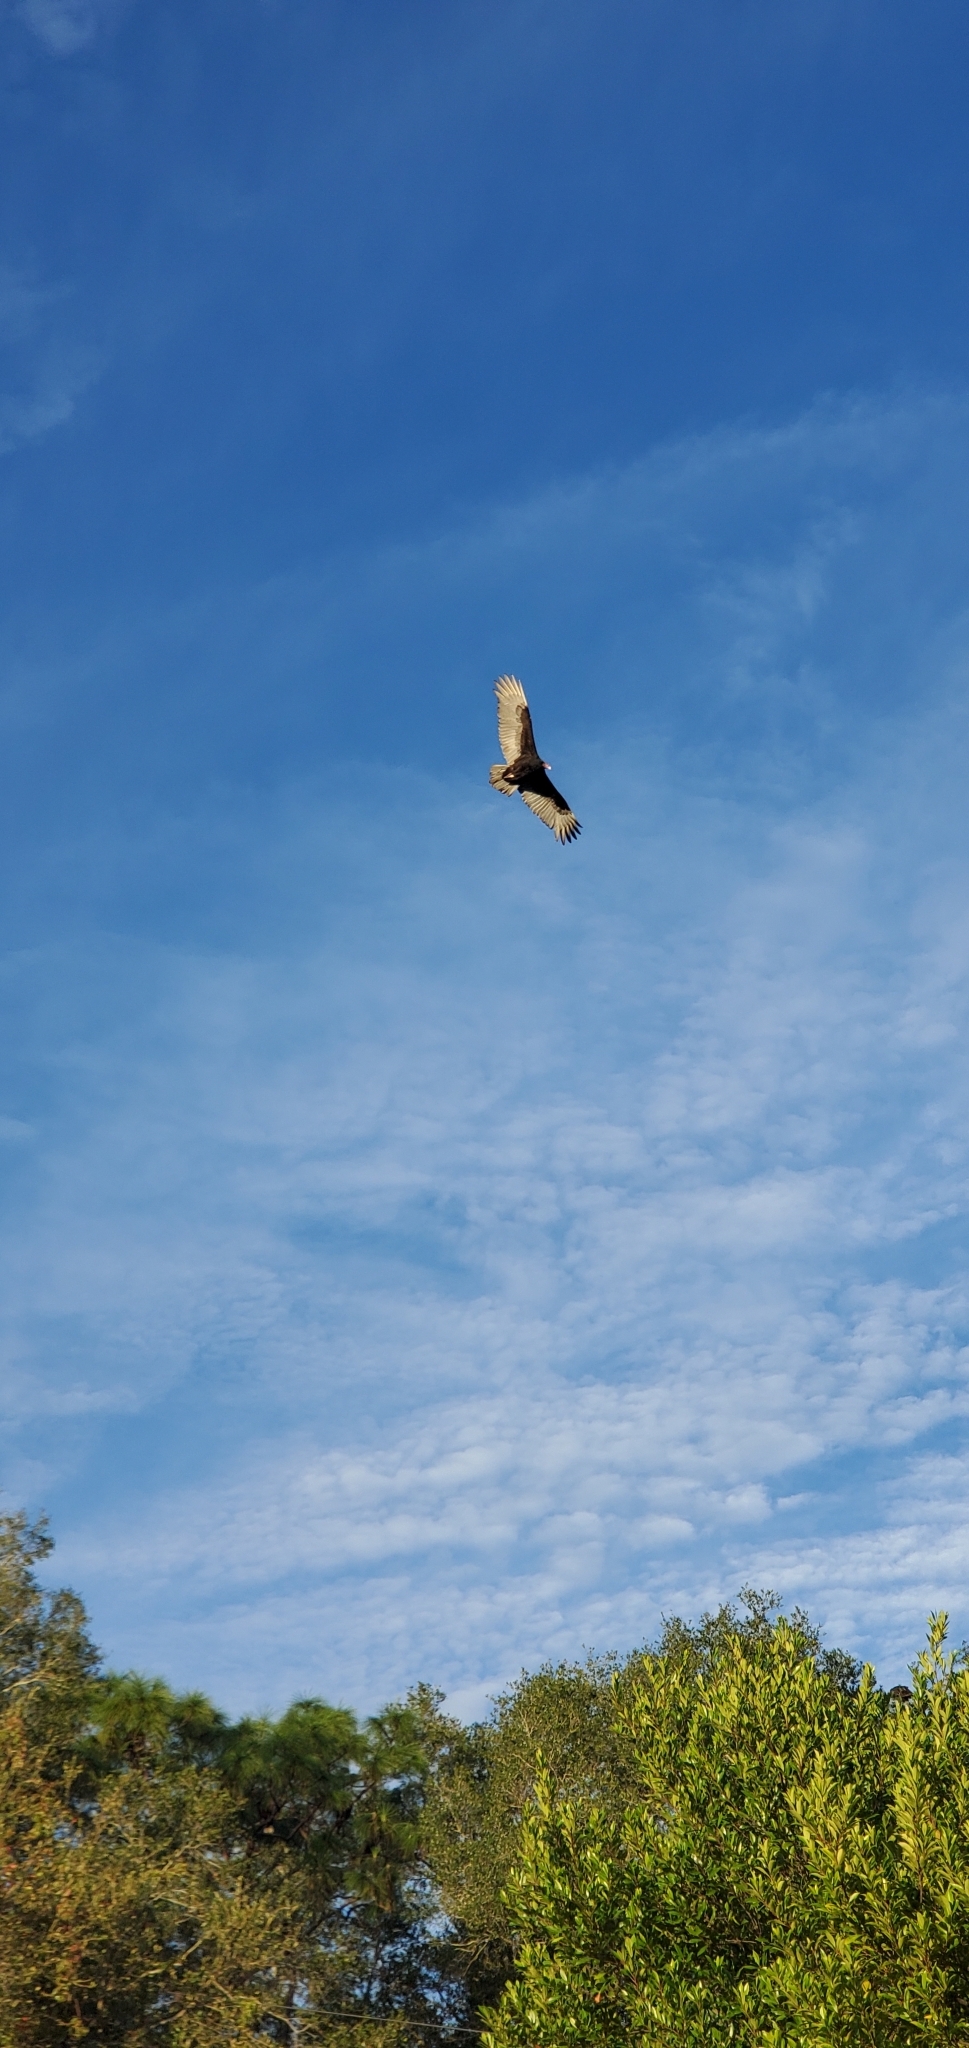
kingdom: Animalia
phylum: Chordata
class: Aves
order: Accipitriformes
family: Cathartidae
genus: Cathartes
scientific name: Cathartes aura
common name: Turkey vulture
